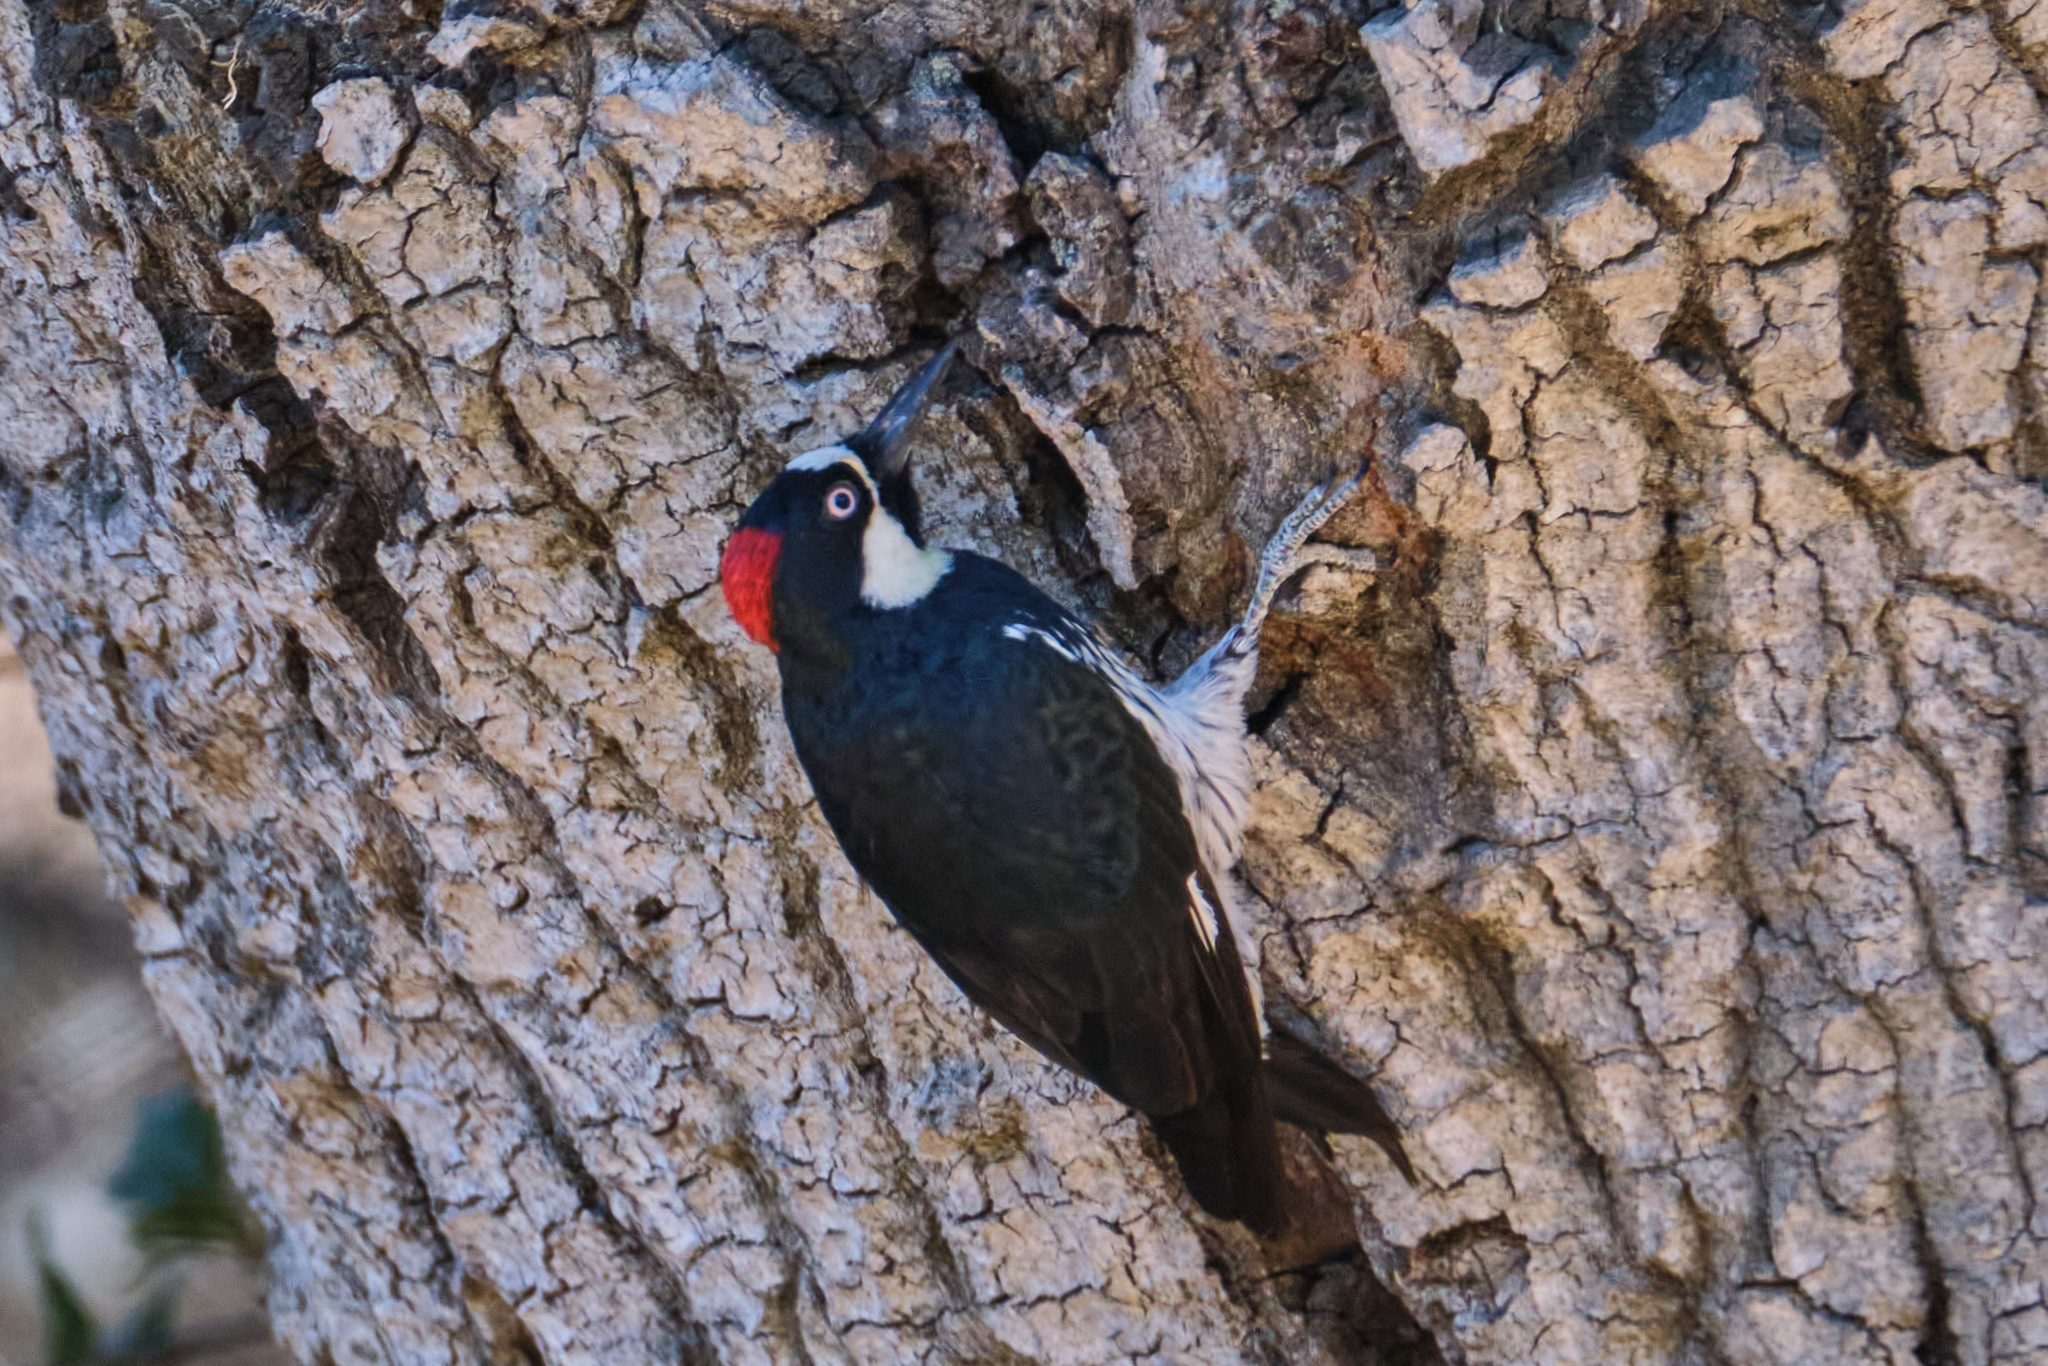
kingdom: Animalia
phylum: Chordata
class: Aves
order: Piciformes
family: Picidae
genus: Melanerpes
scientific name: Melanerpes formicivorus
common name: Acorn woodpecker
